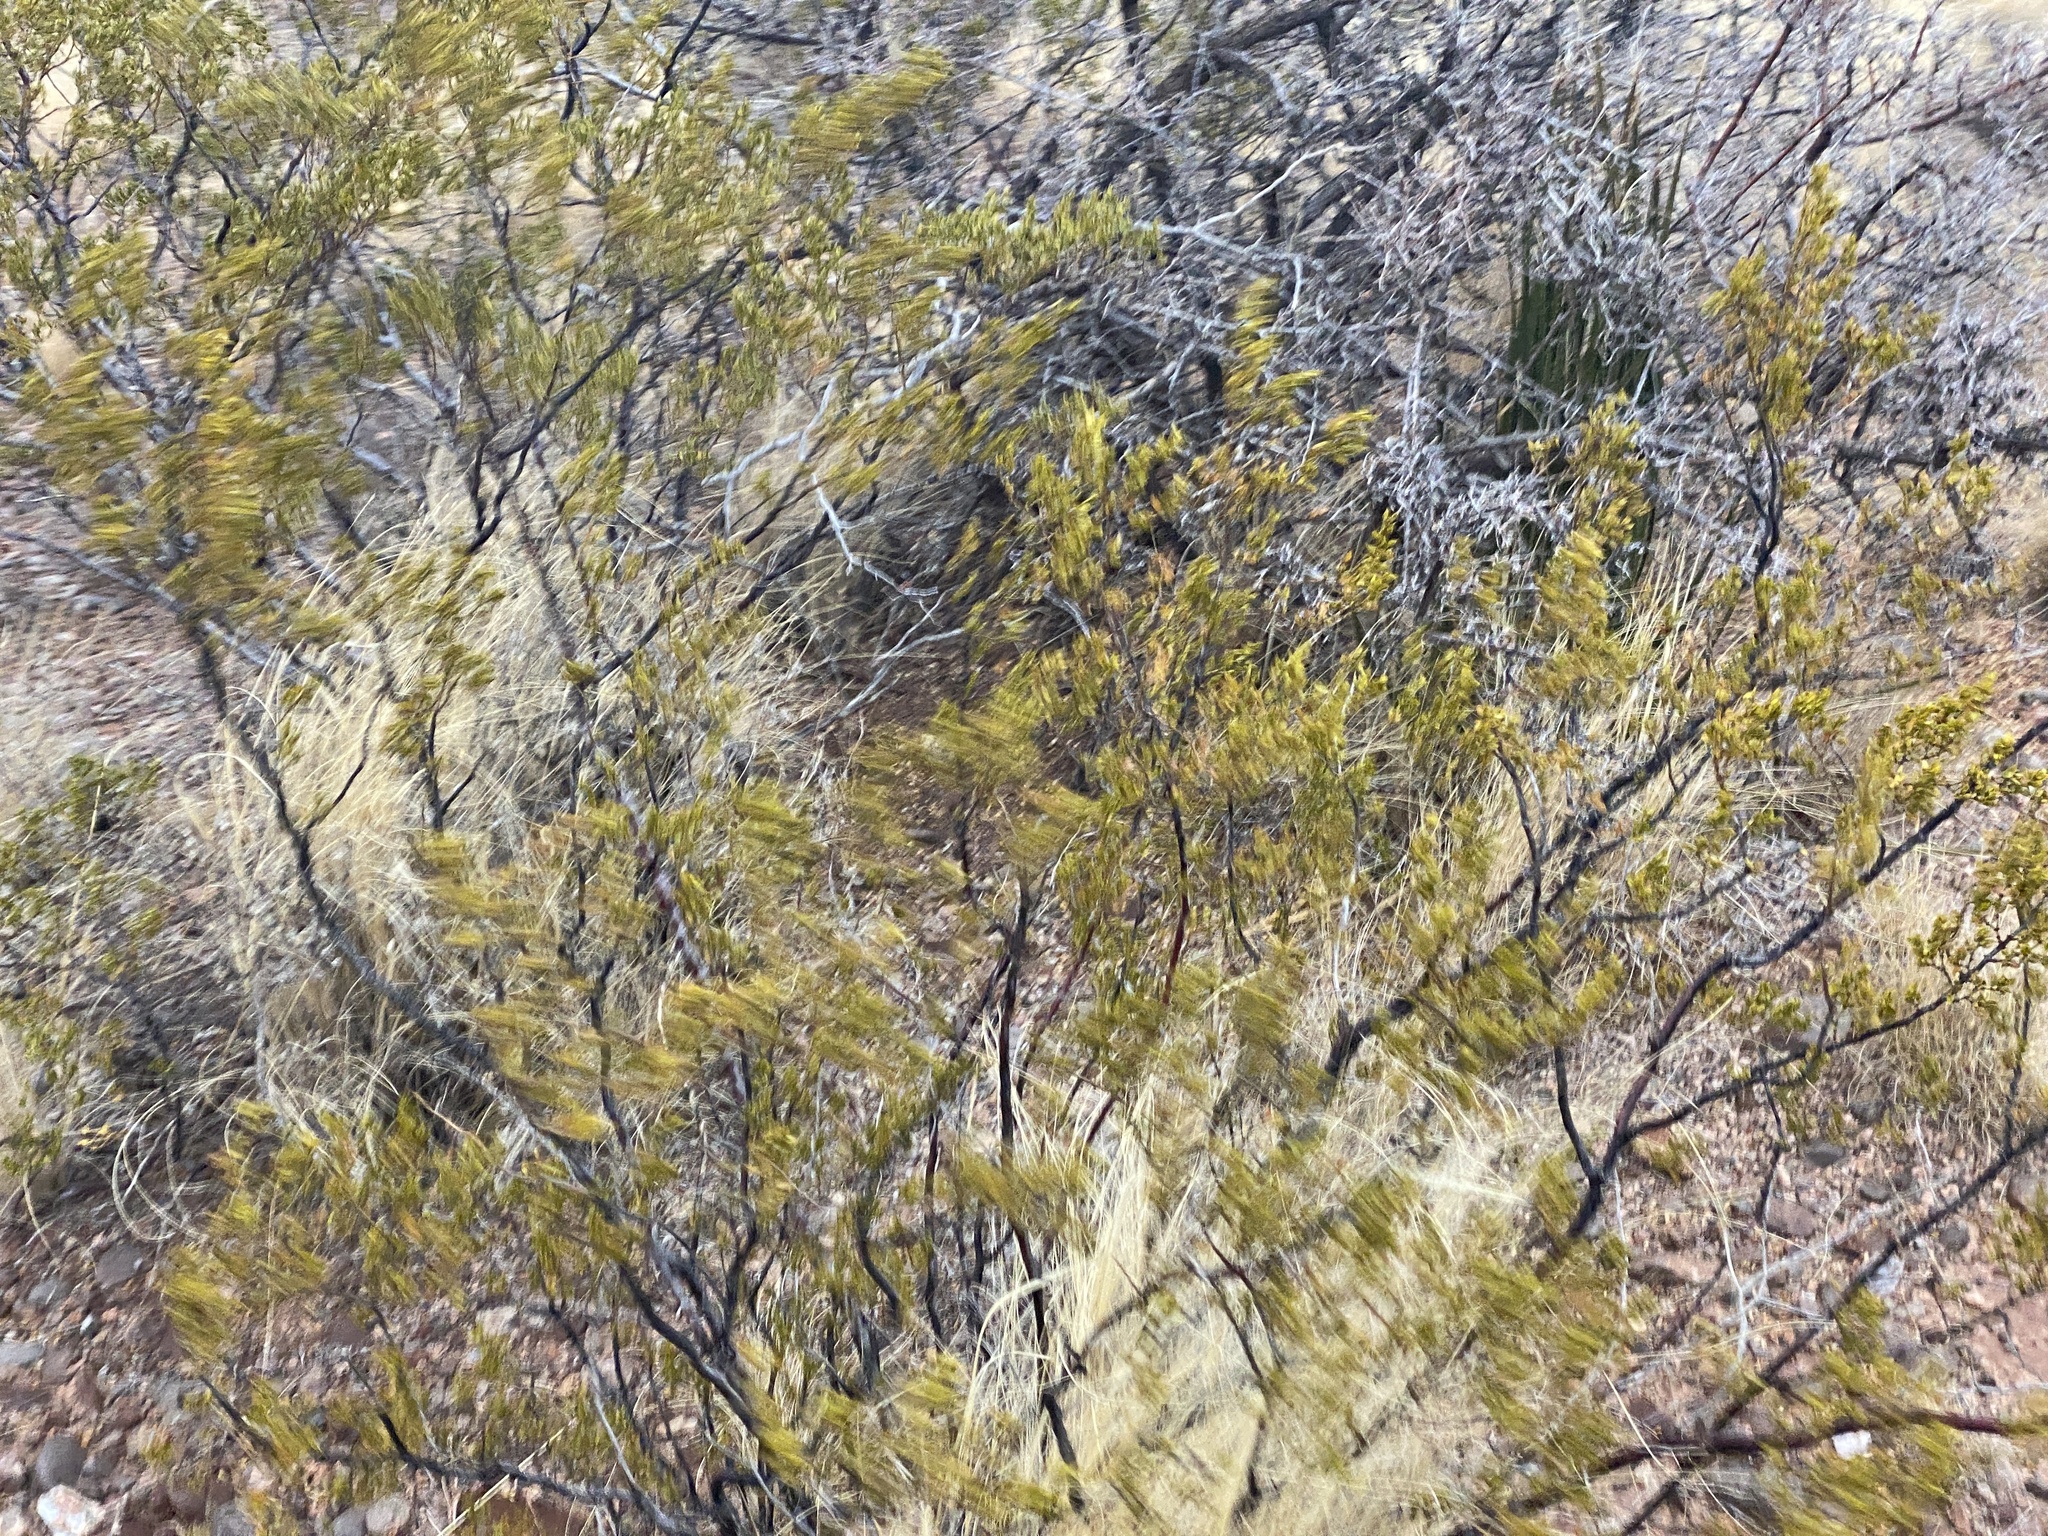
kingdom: Plantae
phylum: Tracheophyta
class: Magnoliopsida
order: Zygophyllales
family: Zygophyllaceae
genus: Larrea
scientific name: Larrea tridentata
